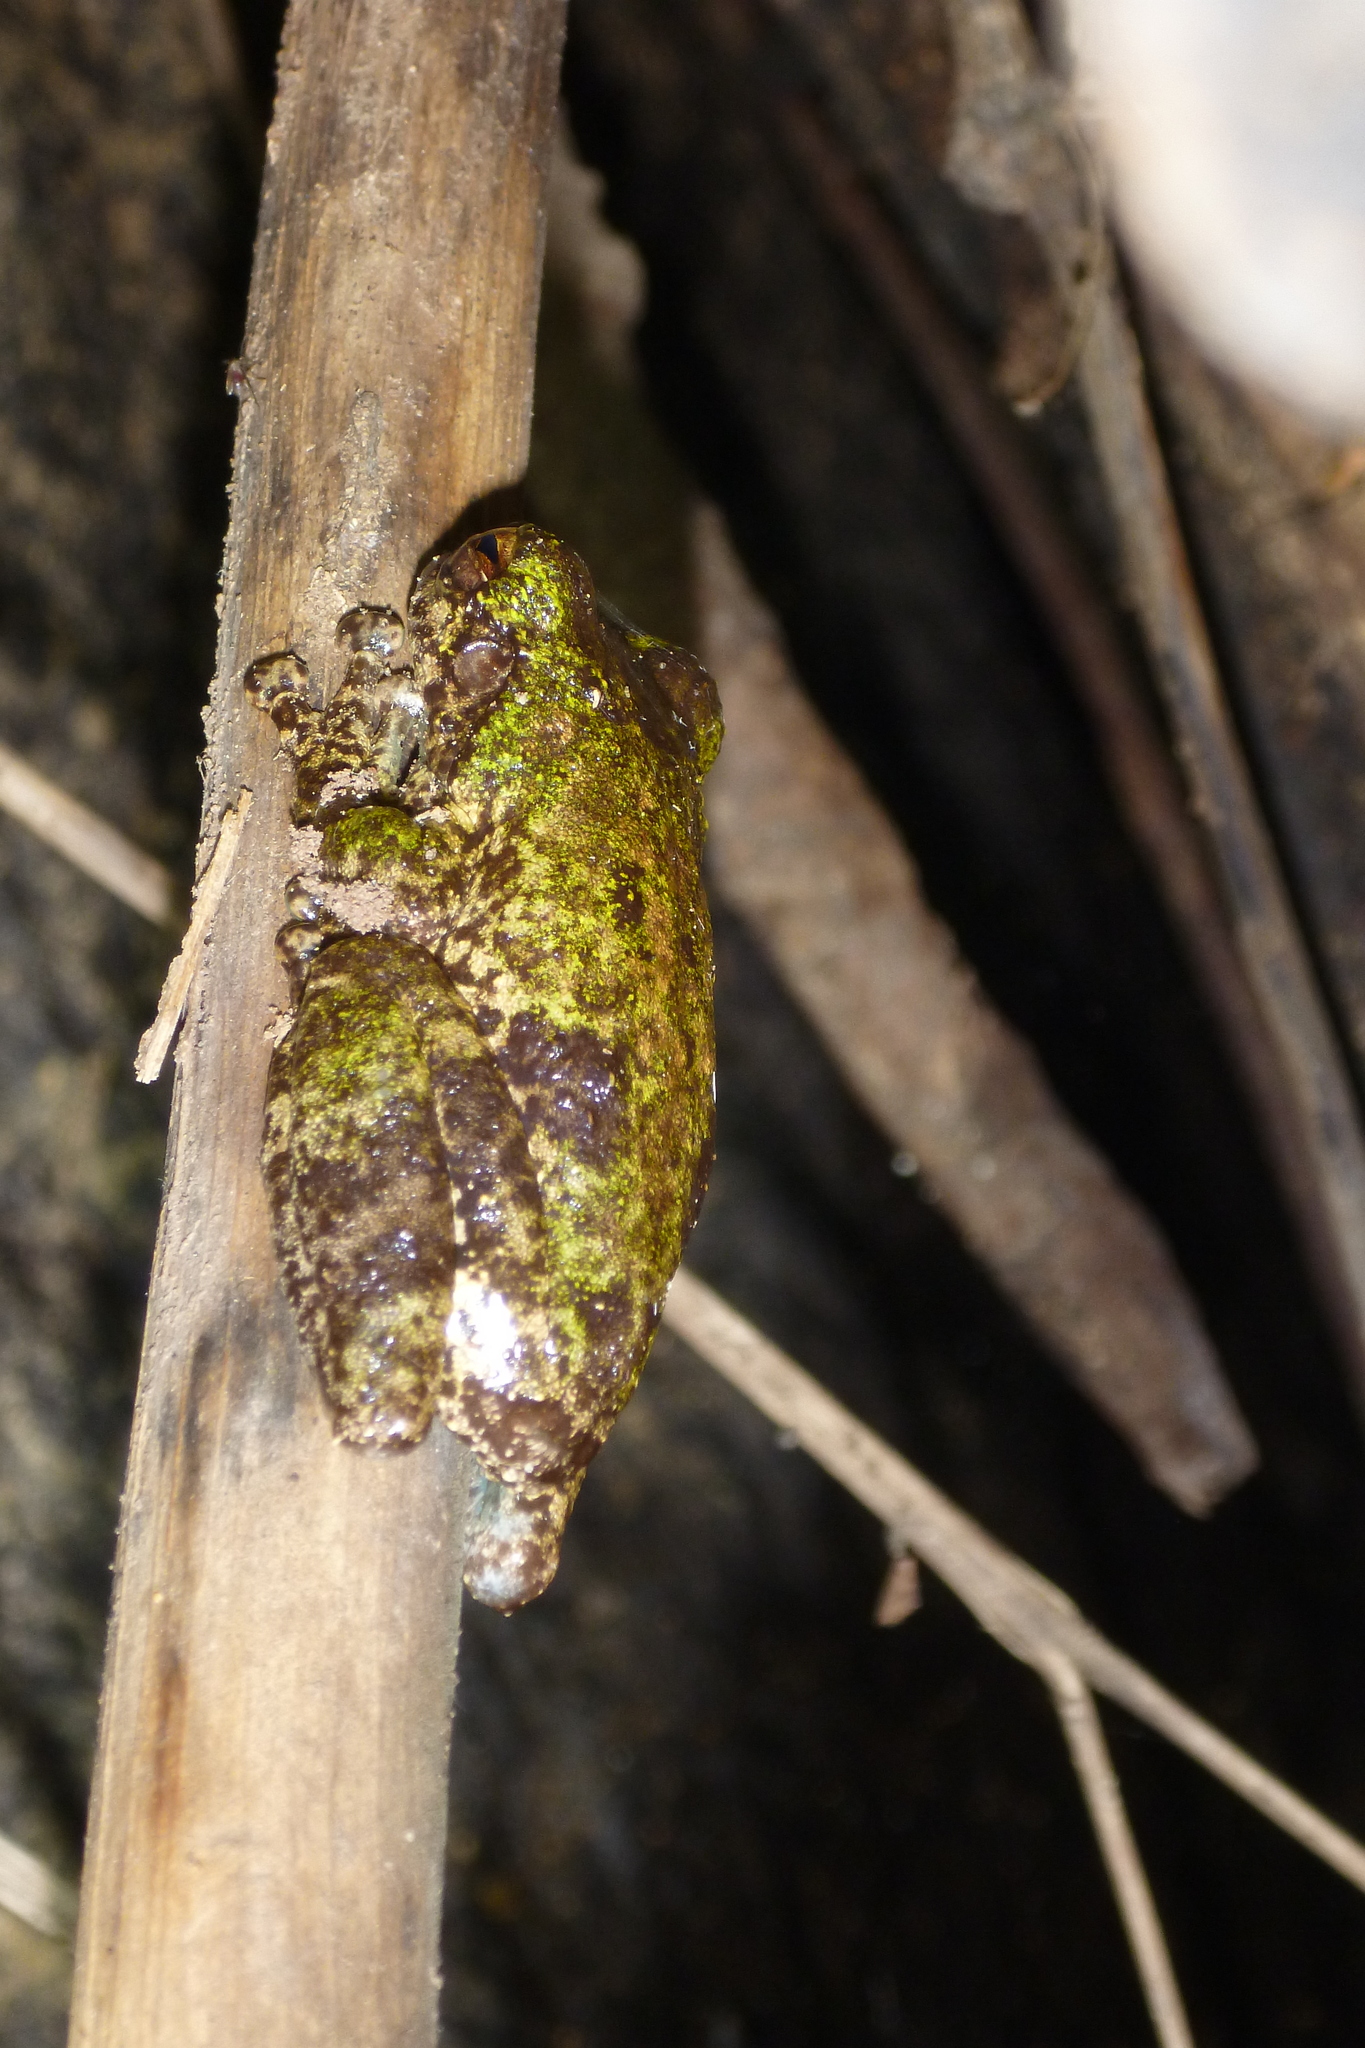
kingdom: Animalia
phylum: Chordata
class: Amphibia
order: Anura
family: Pelodryadidae
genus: Ranoidea
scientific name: Ranoidea serrata
